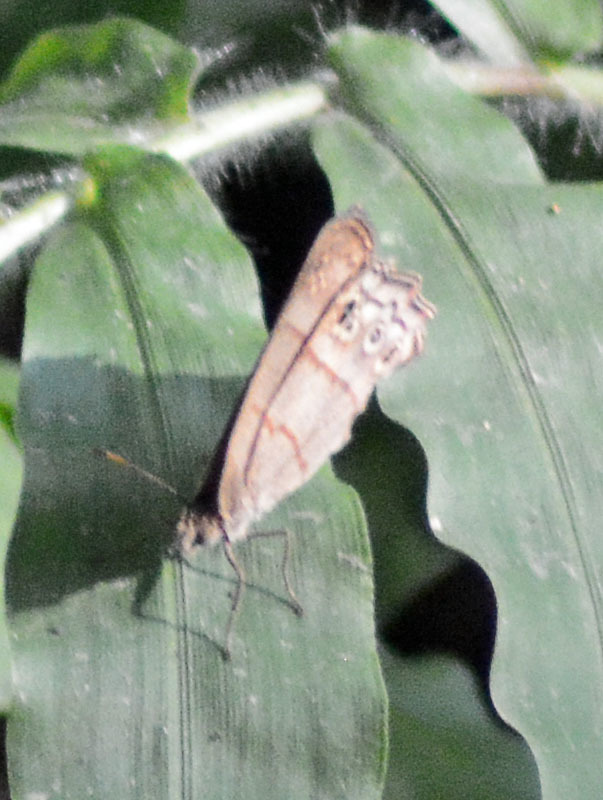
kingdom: Animalia
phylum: Arthropoda
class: Insecta
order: Lepidoptera
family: Nymphalidae
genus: Vareuptychia
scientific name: Vareuptychia similis
